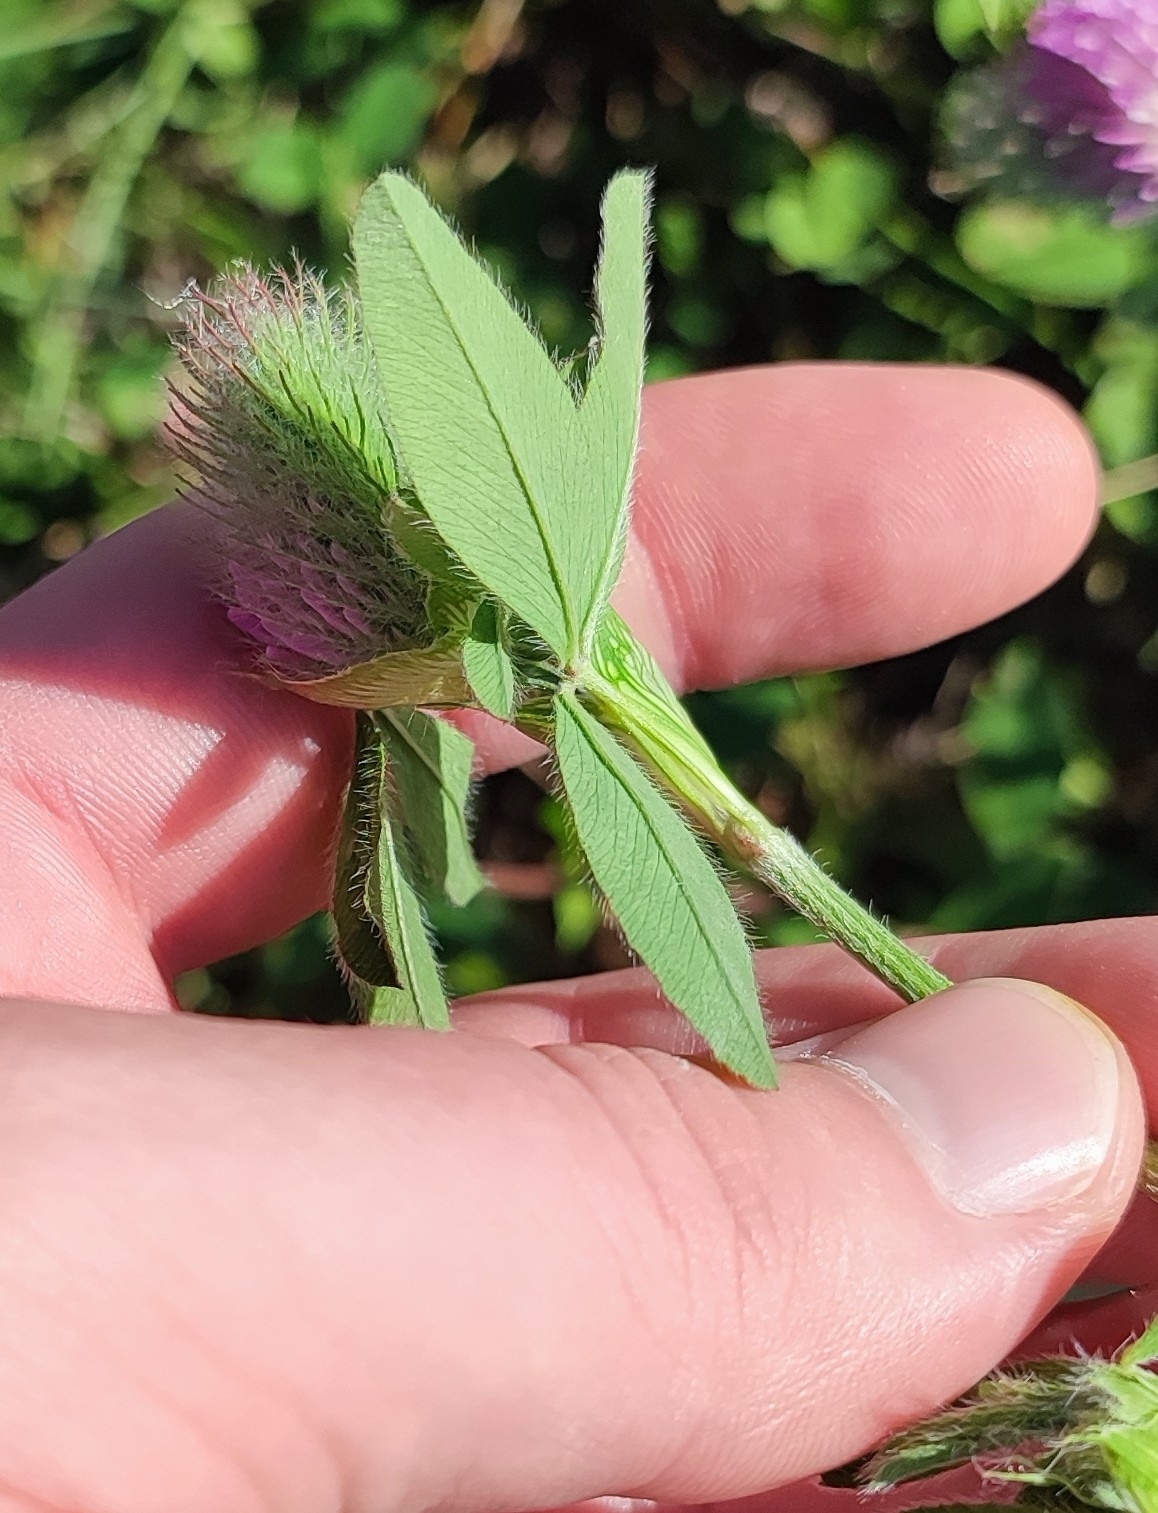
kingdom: Plantae
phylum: Tracheophyta
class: Magnoliopsida
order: Fabales
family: Fabaceae
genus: Trifolium
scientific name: Trifolium pratense
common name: Red clover
